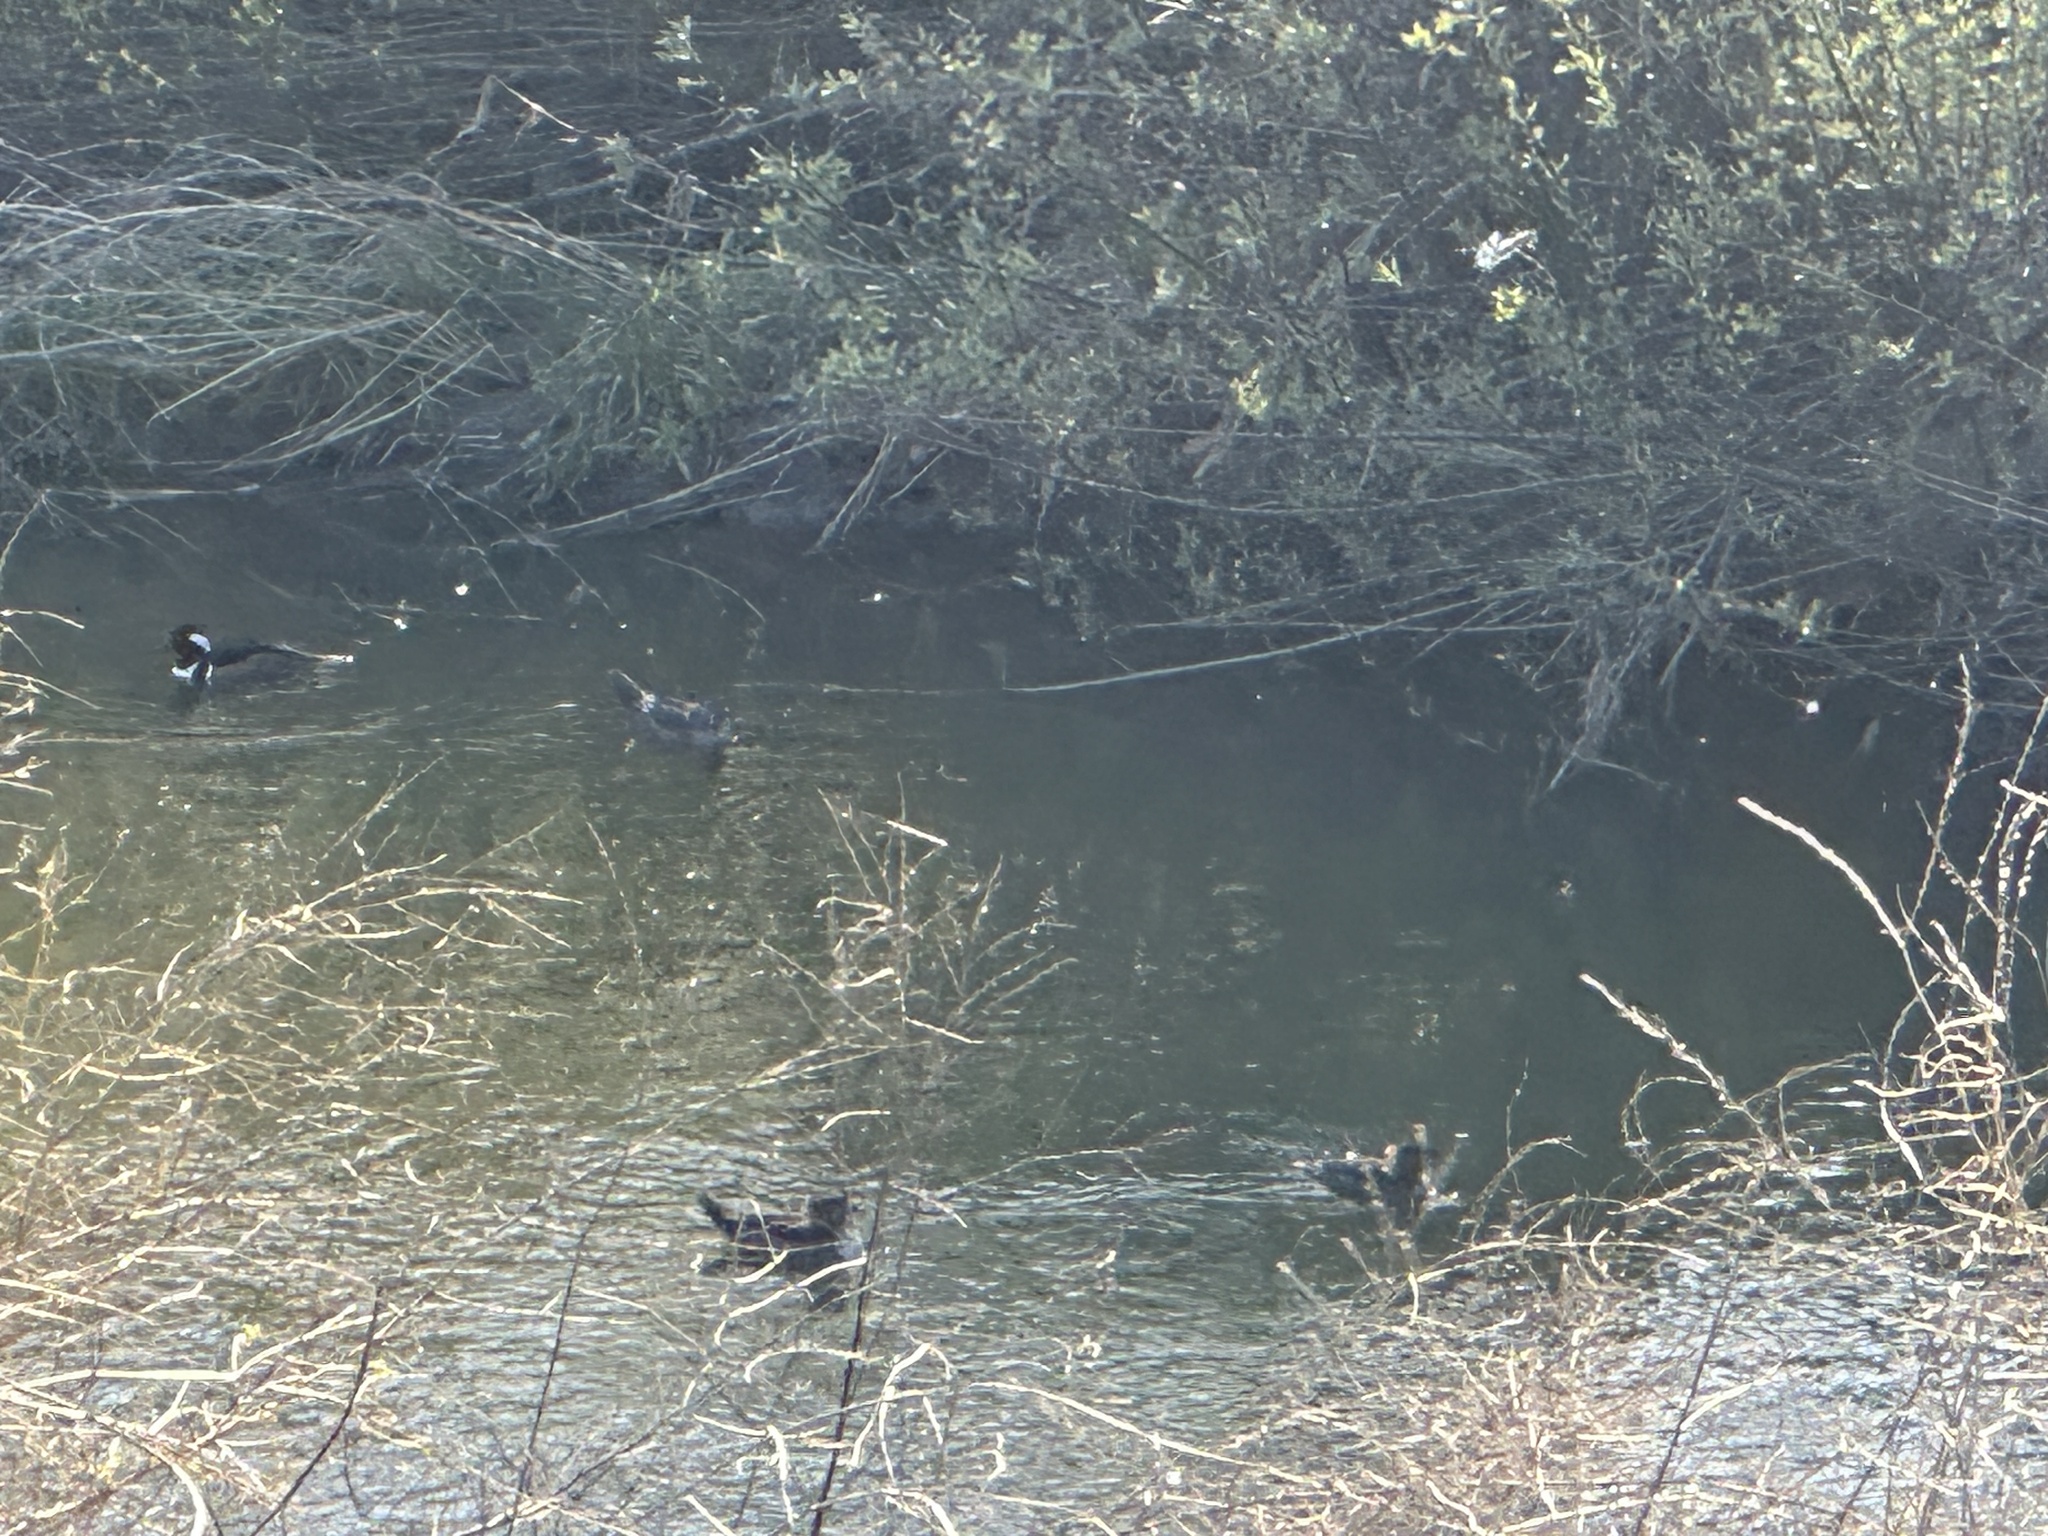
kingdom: Animalia
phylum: Chordata
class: Aves
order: Anseriformes
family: Anatidae
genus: Lophodytes
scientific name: Lophodytes cucullatus
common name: Hooded merganser
